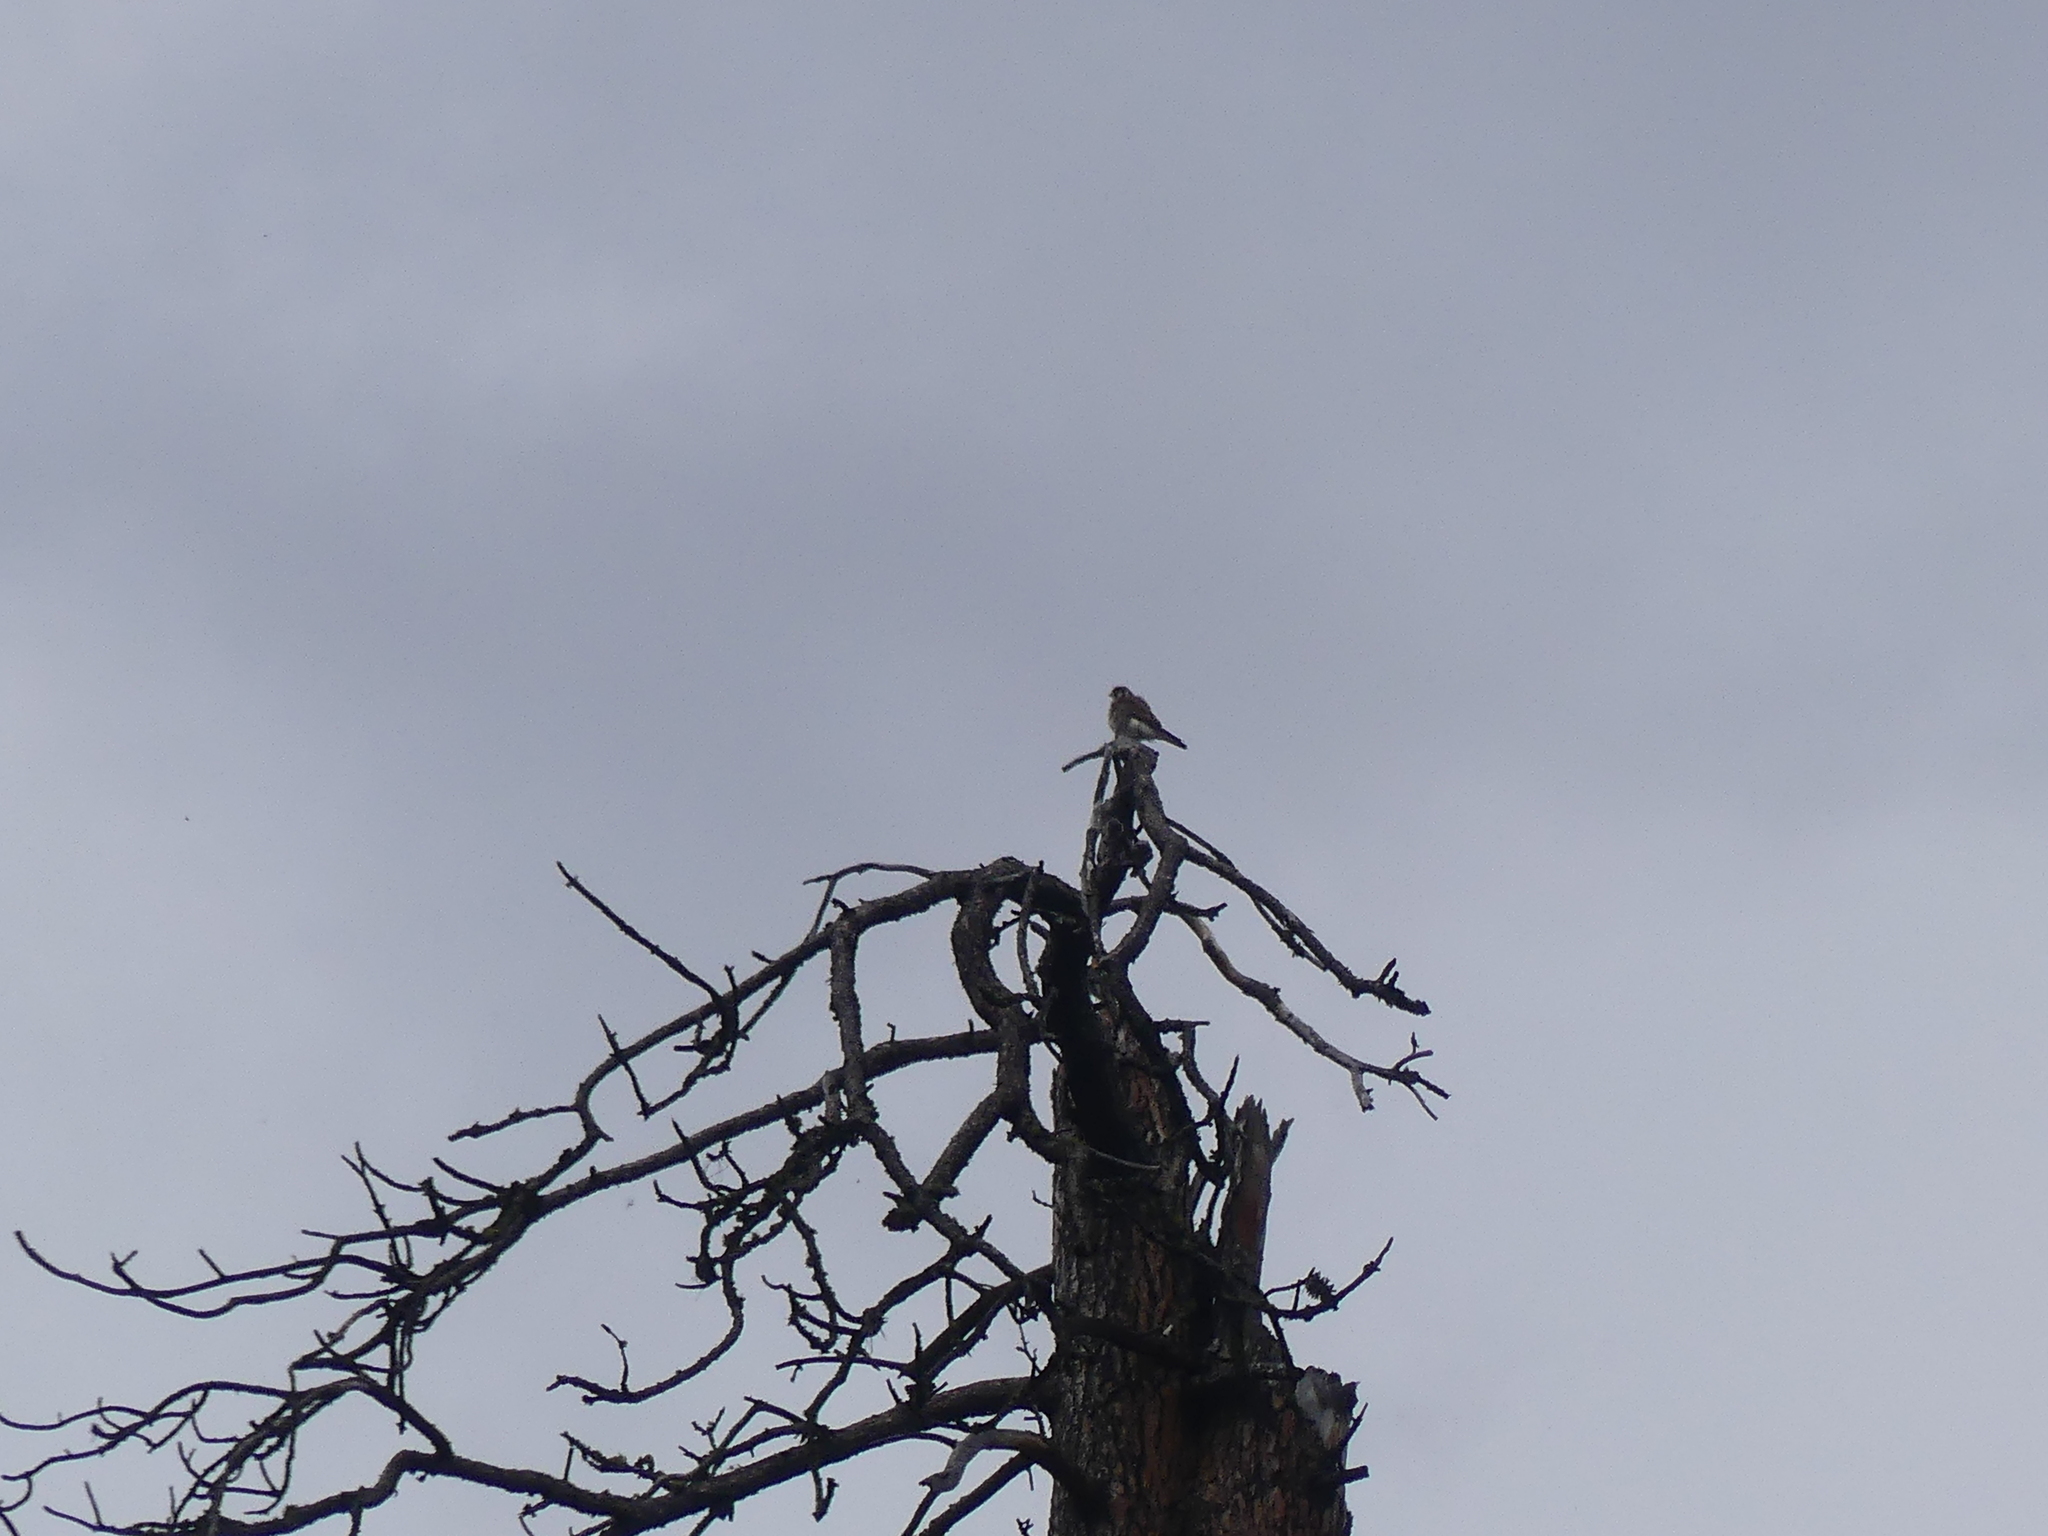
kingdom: Animalia
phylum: Chordata
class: Aves
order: Falconiformes
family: Falconidae
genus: Falco
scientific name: Falco sparverius
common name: American kestrel
